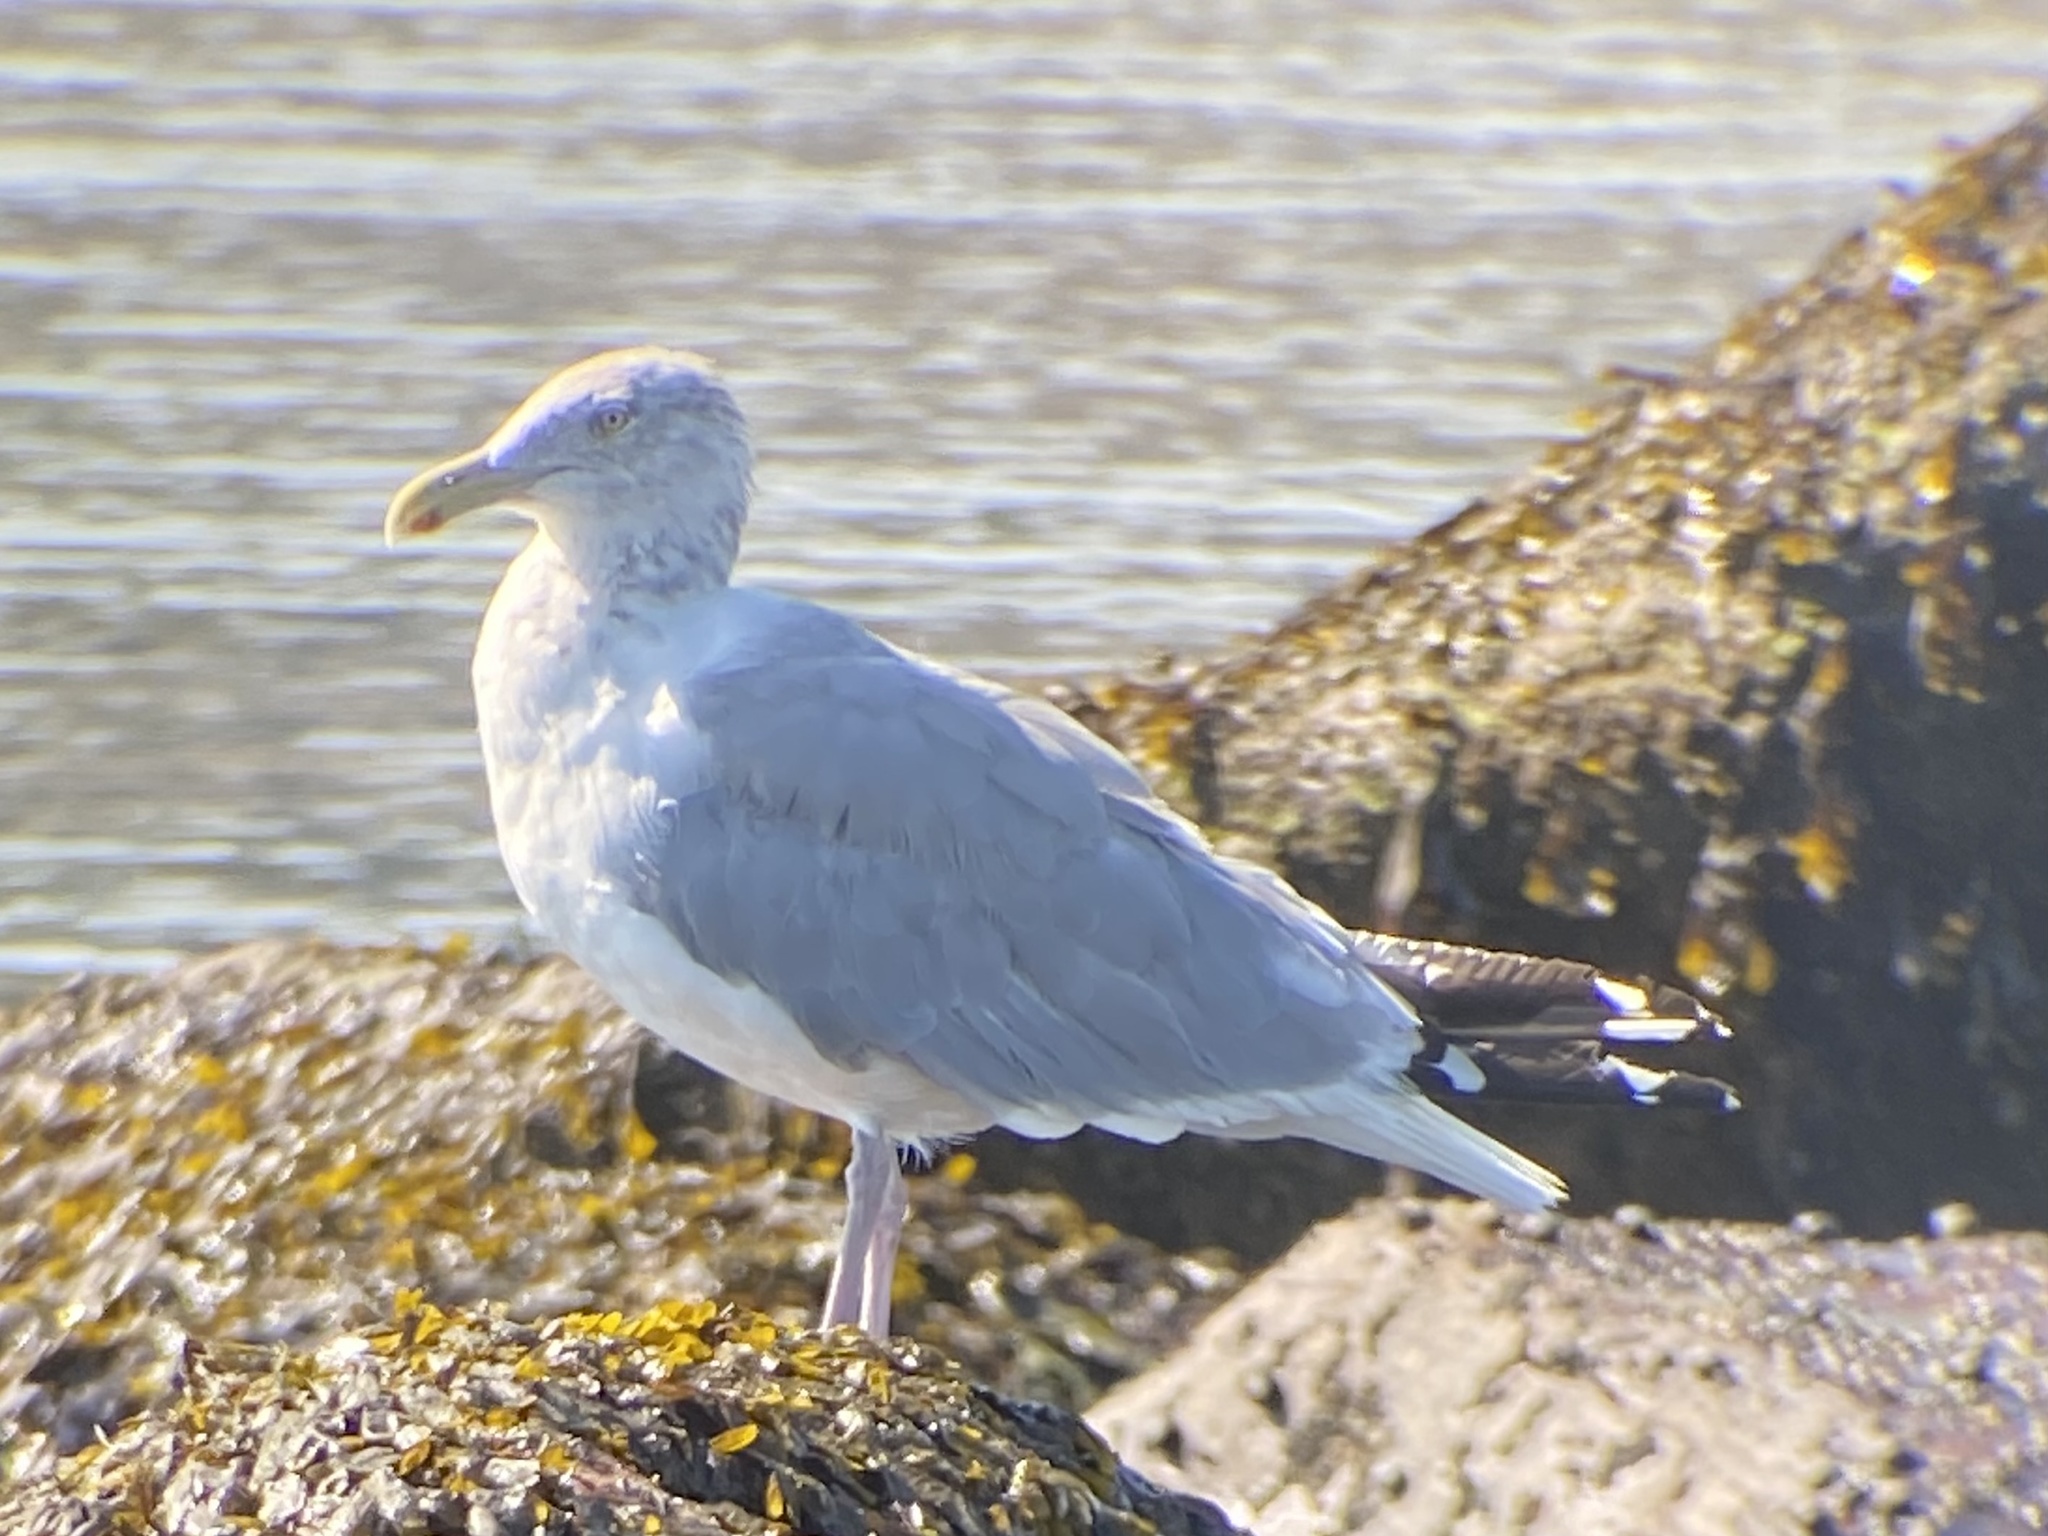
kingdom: Animalia
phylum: Chordata
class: Aves
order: Charadriiformes
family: Laridae
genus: Larus
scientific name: Larus smithsonianus
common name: American herring gull
